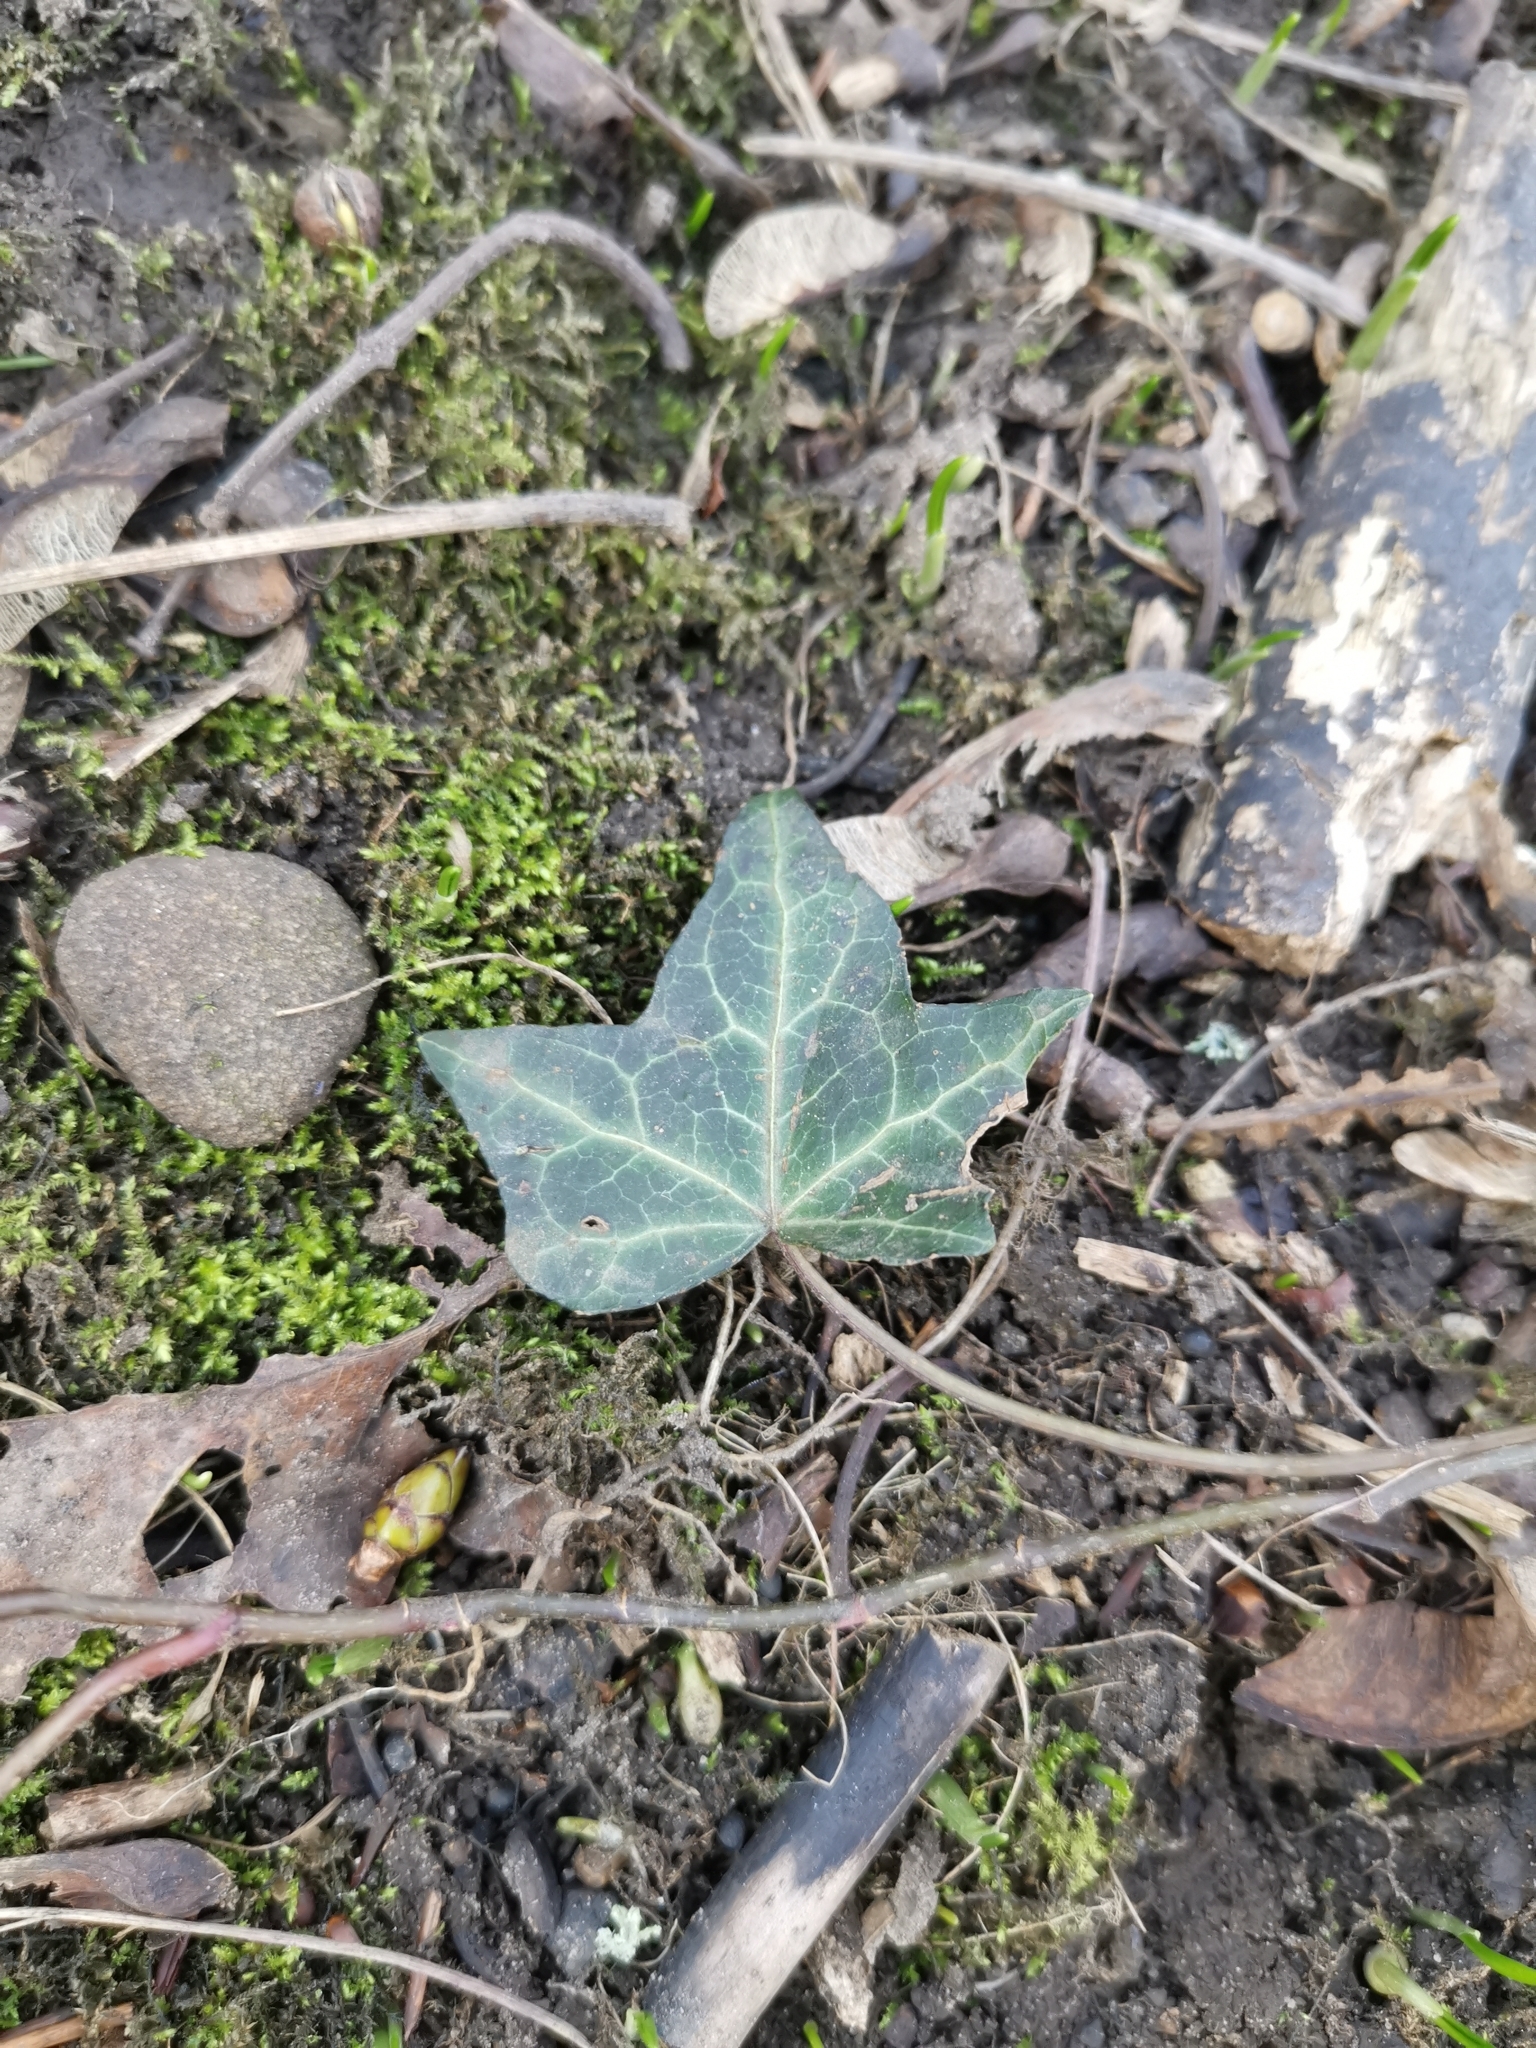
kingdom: Plantae
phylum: Tracheophyta
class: Magnoliopsida
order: Apiales
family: Araliaceae
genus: Hedera
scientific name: Hedera helix
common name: Ivy
